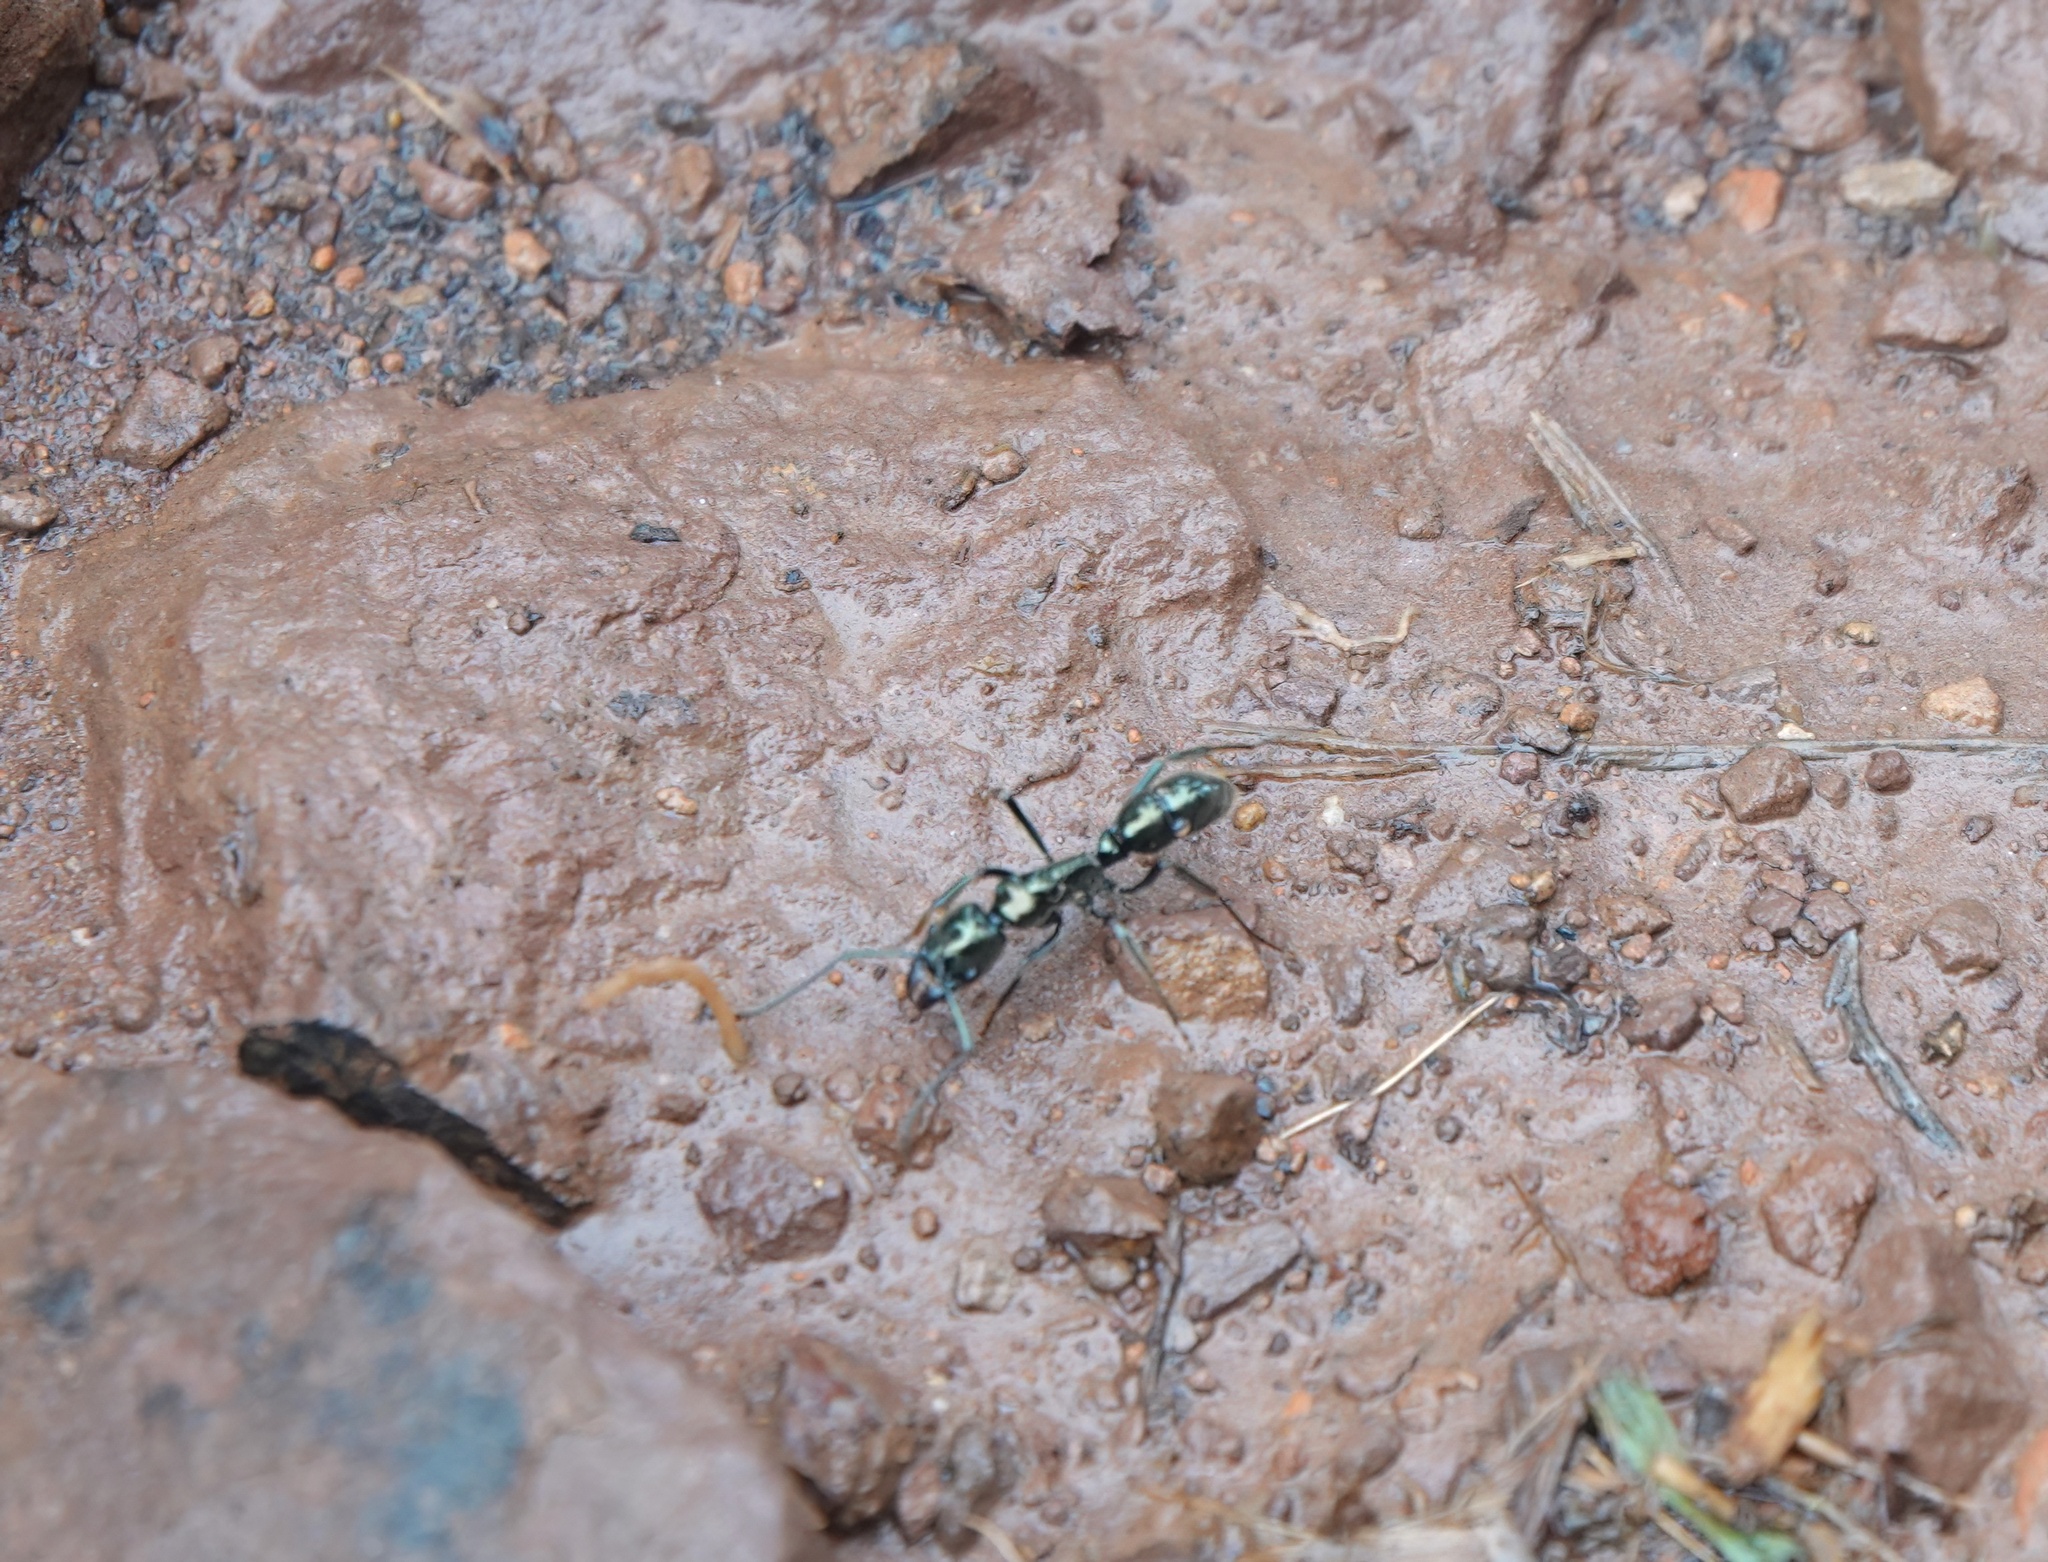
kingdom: Animalia
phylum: Arthropoda
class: Insecta
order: Hymenoptera
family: Formicidae
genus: Neoponera
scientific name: Neoponera
